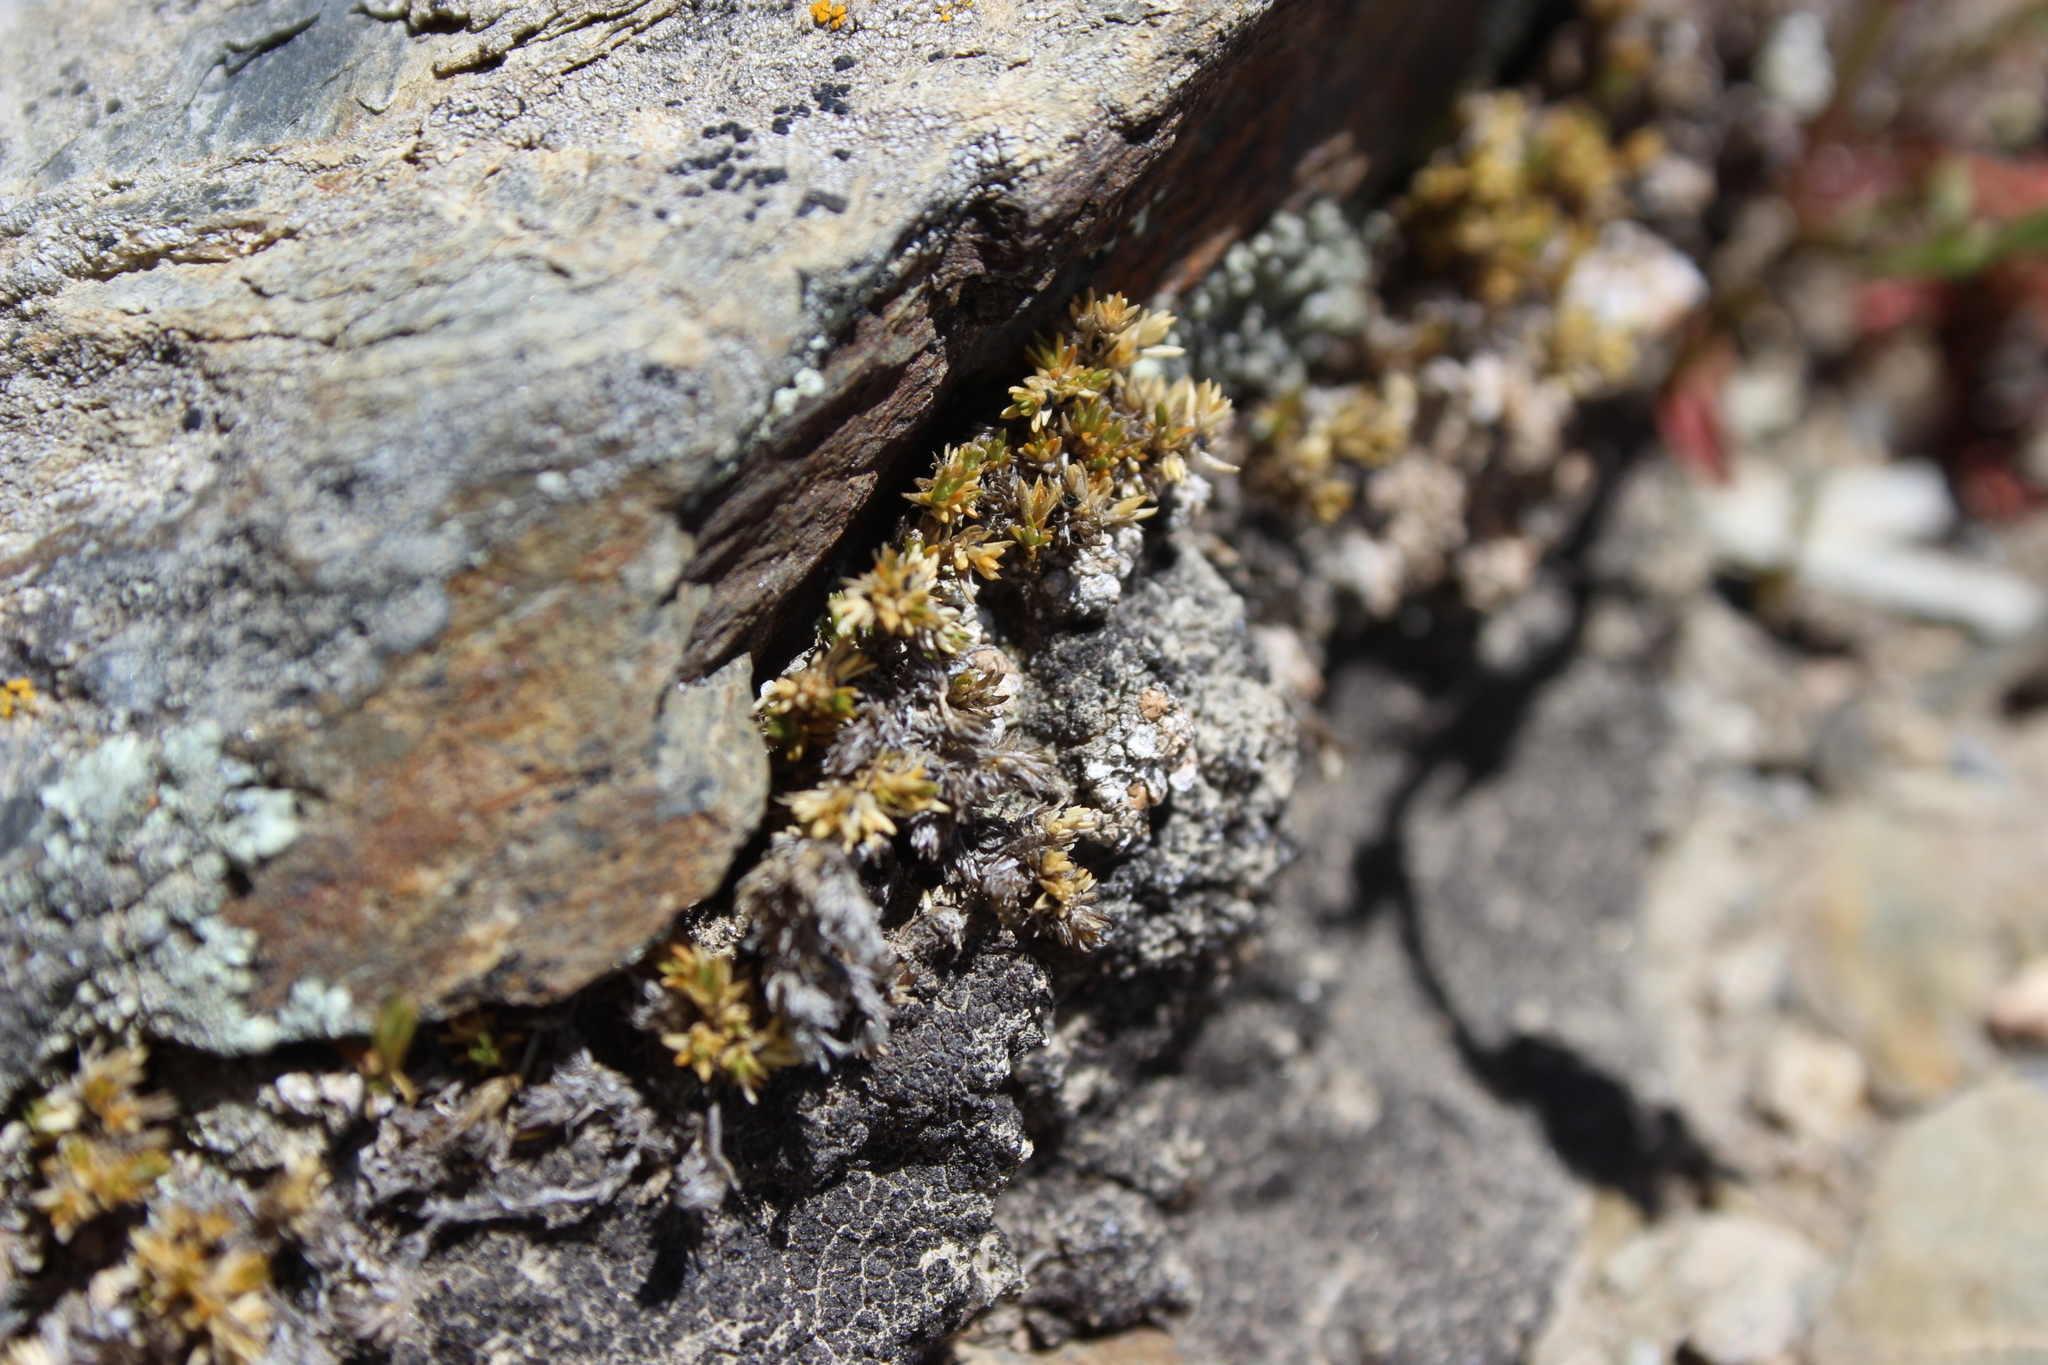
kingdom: Plantae
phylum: Tracheophyta
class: Magnoliopsida
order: Caryophyllales
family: Caryophyllaceae
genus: Stellaria
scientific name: Stellaria gracilenta
